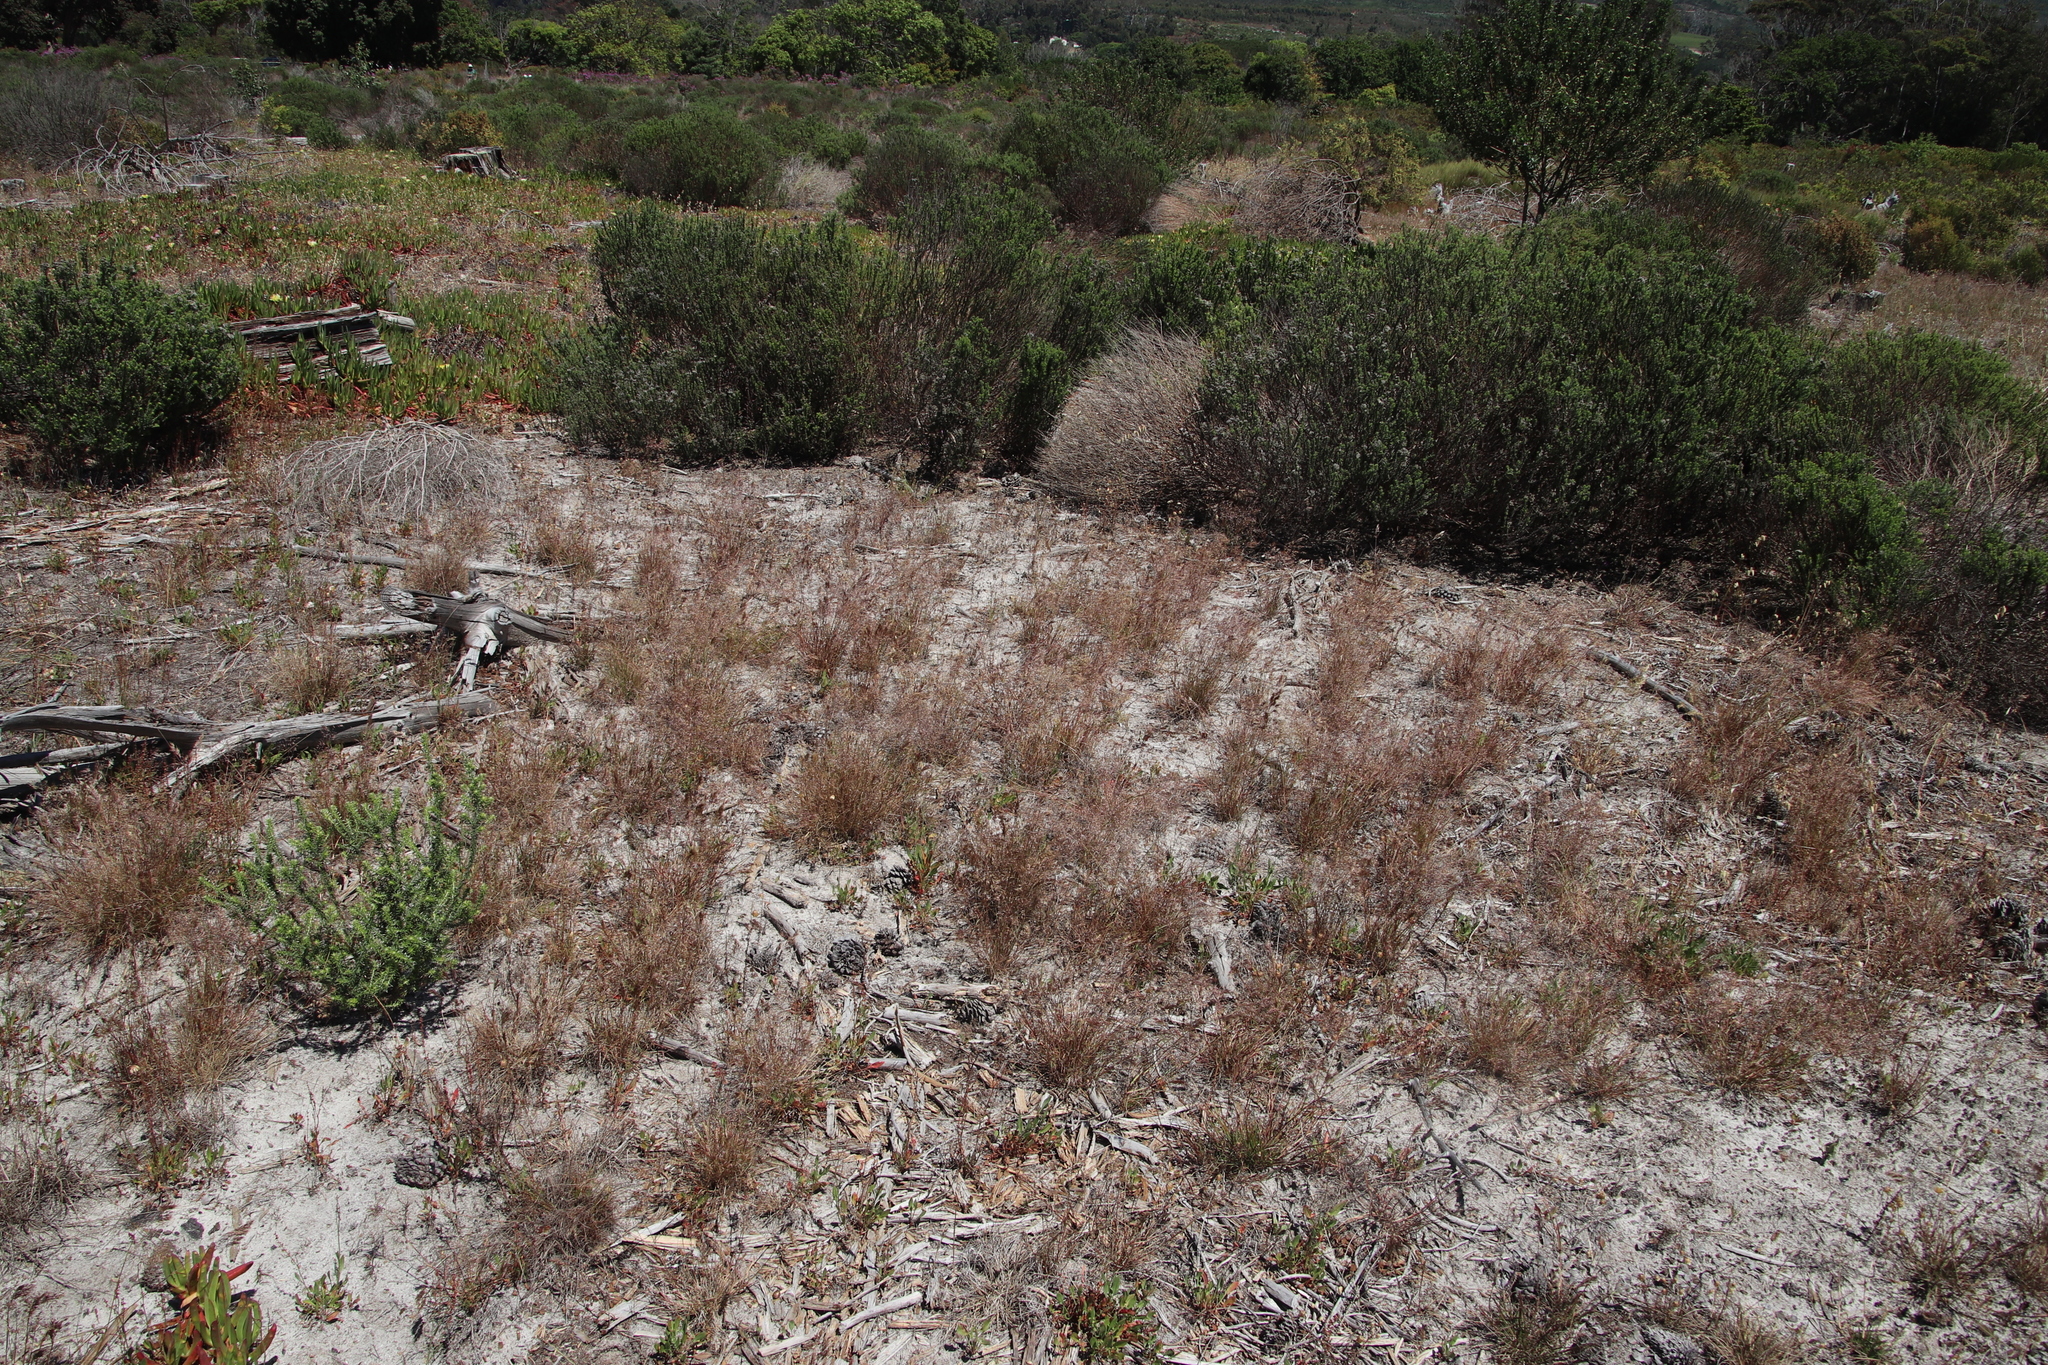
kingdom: Plantae
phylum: Tracheophyta
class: Liliopsida
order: Poales
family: Poaceae
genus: Pentameris
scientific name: Pentameris airoides
